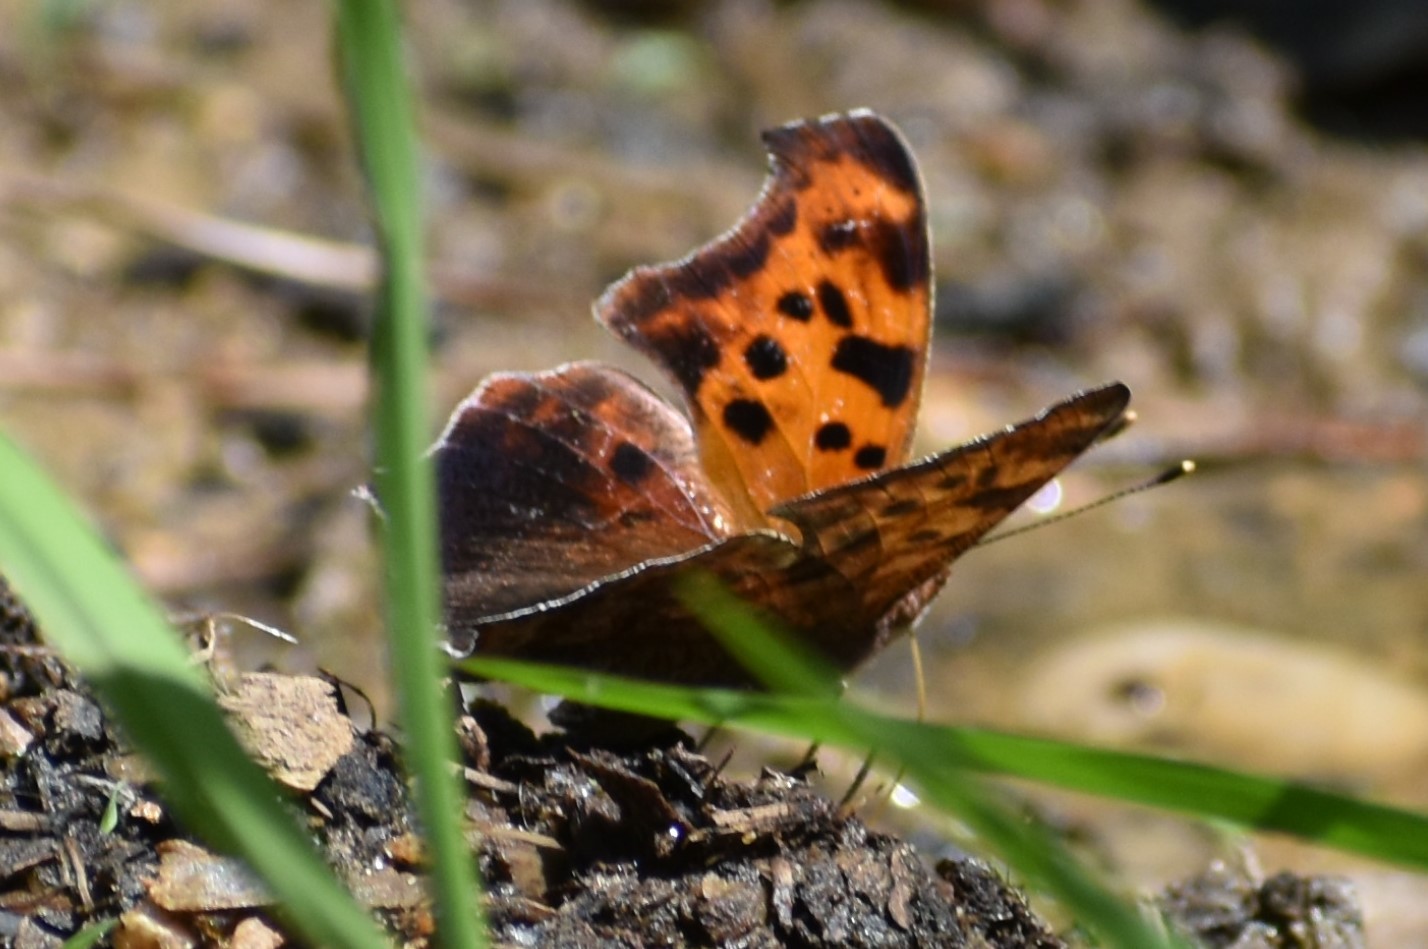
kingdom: Animalia
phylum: Arthropoda
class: Insecta
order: Lepidoptera
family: Nymphalidae
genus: Polygonia
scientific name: Polygonia interrogationis
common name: Question mark
